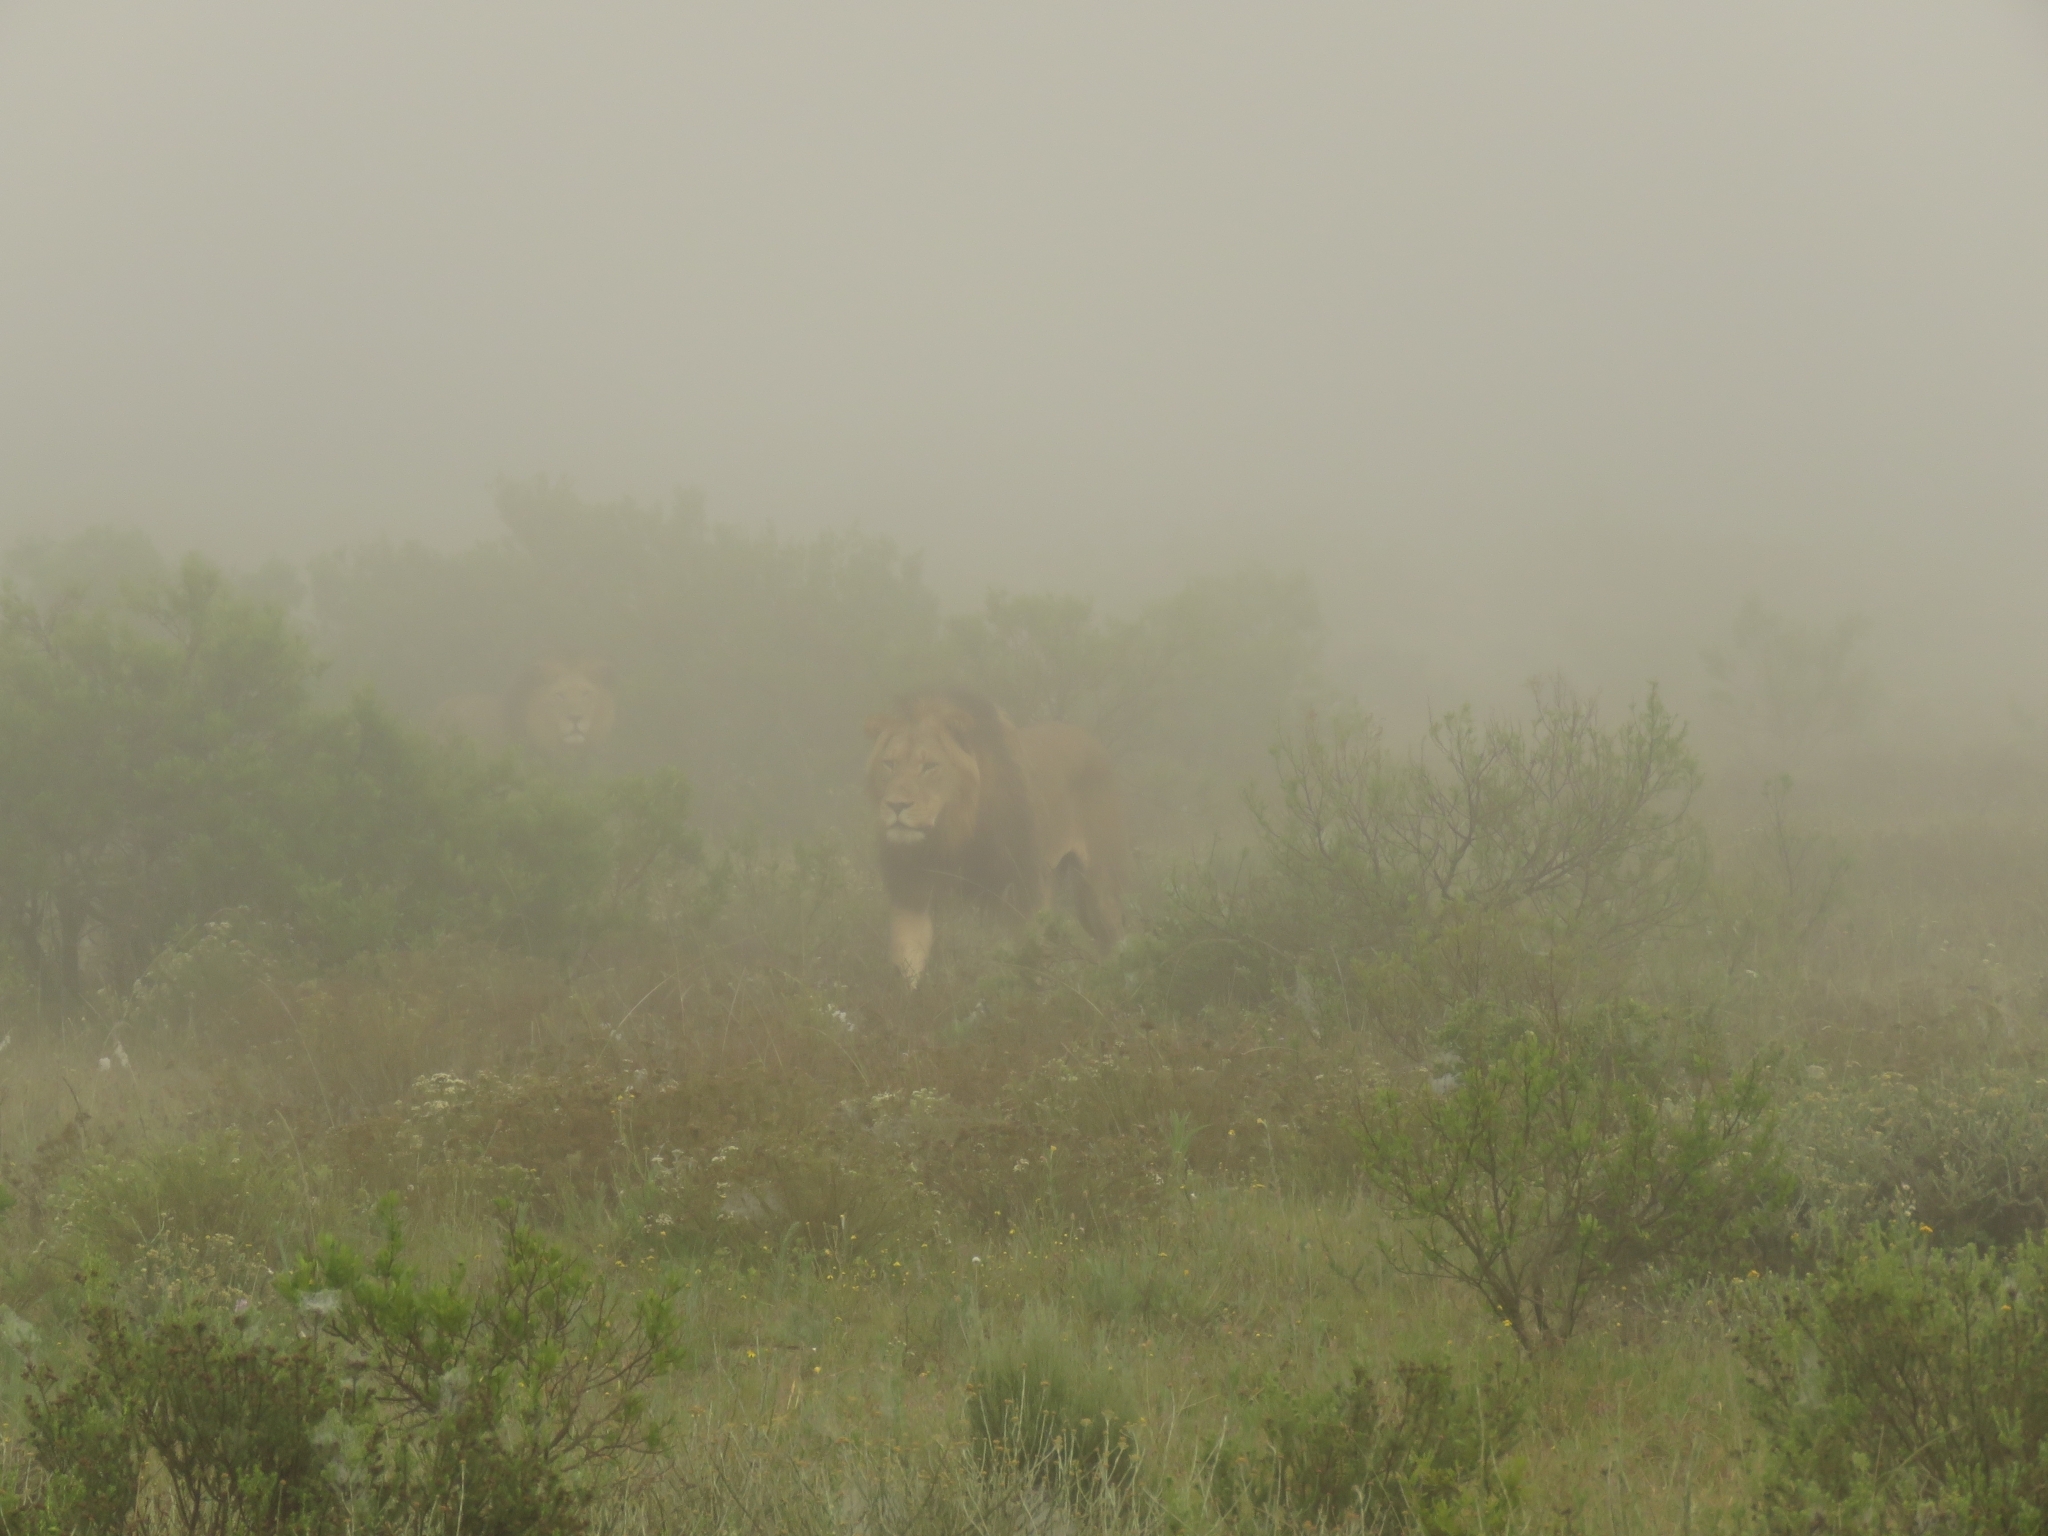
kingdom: Animalia
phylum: Chordata
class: Mammalia
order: Carnivora
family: Felidae
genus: Panthera
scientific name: Panthera leo
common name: Lion
